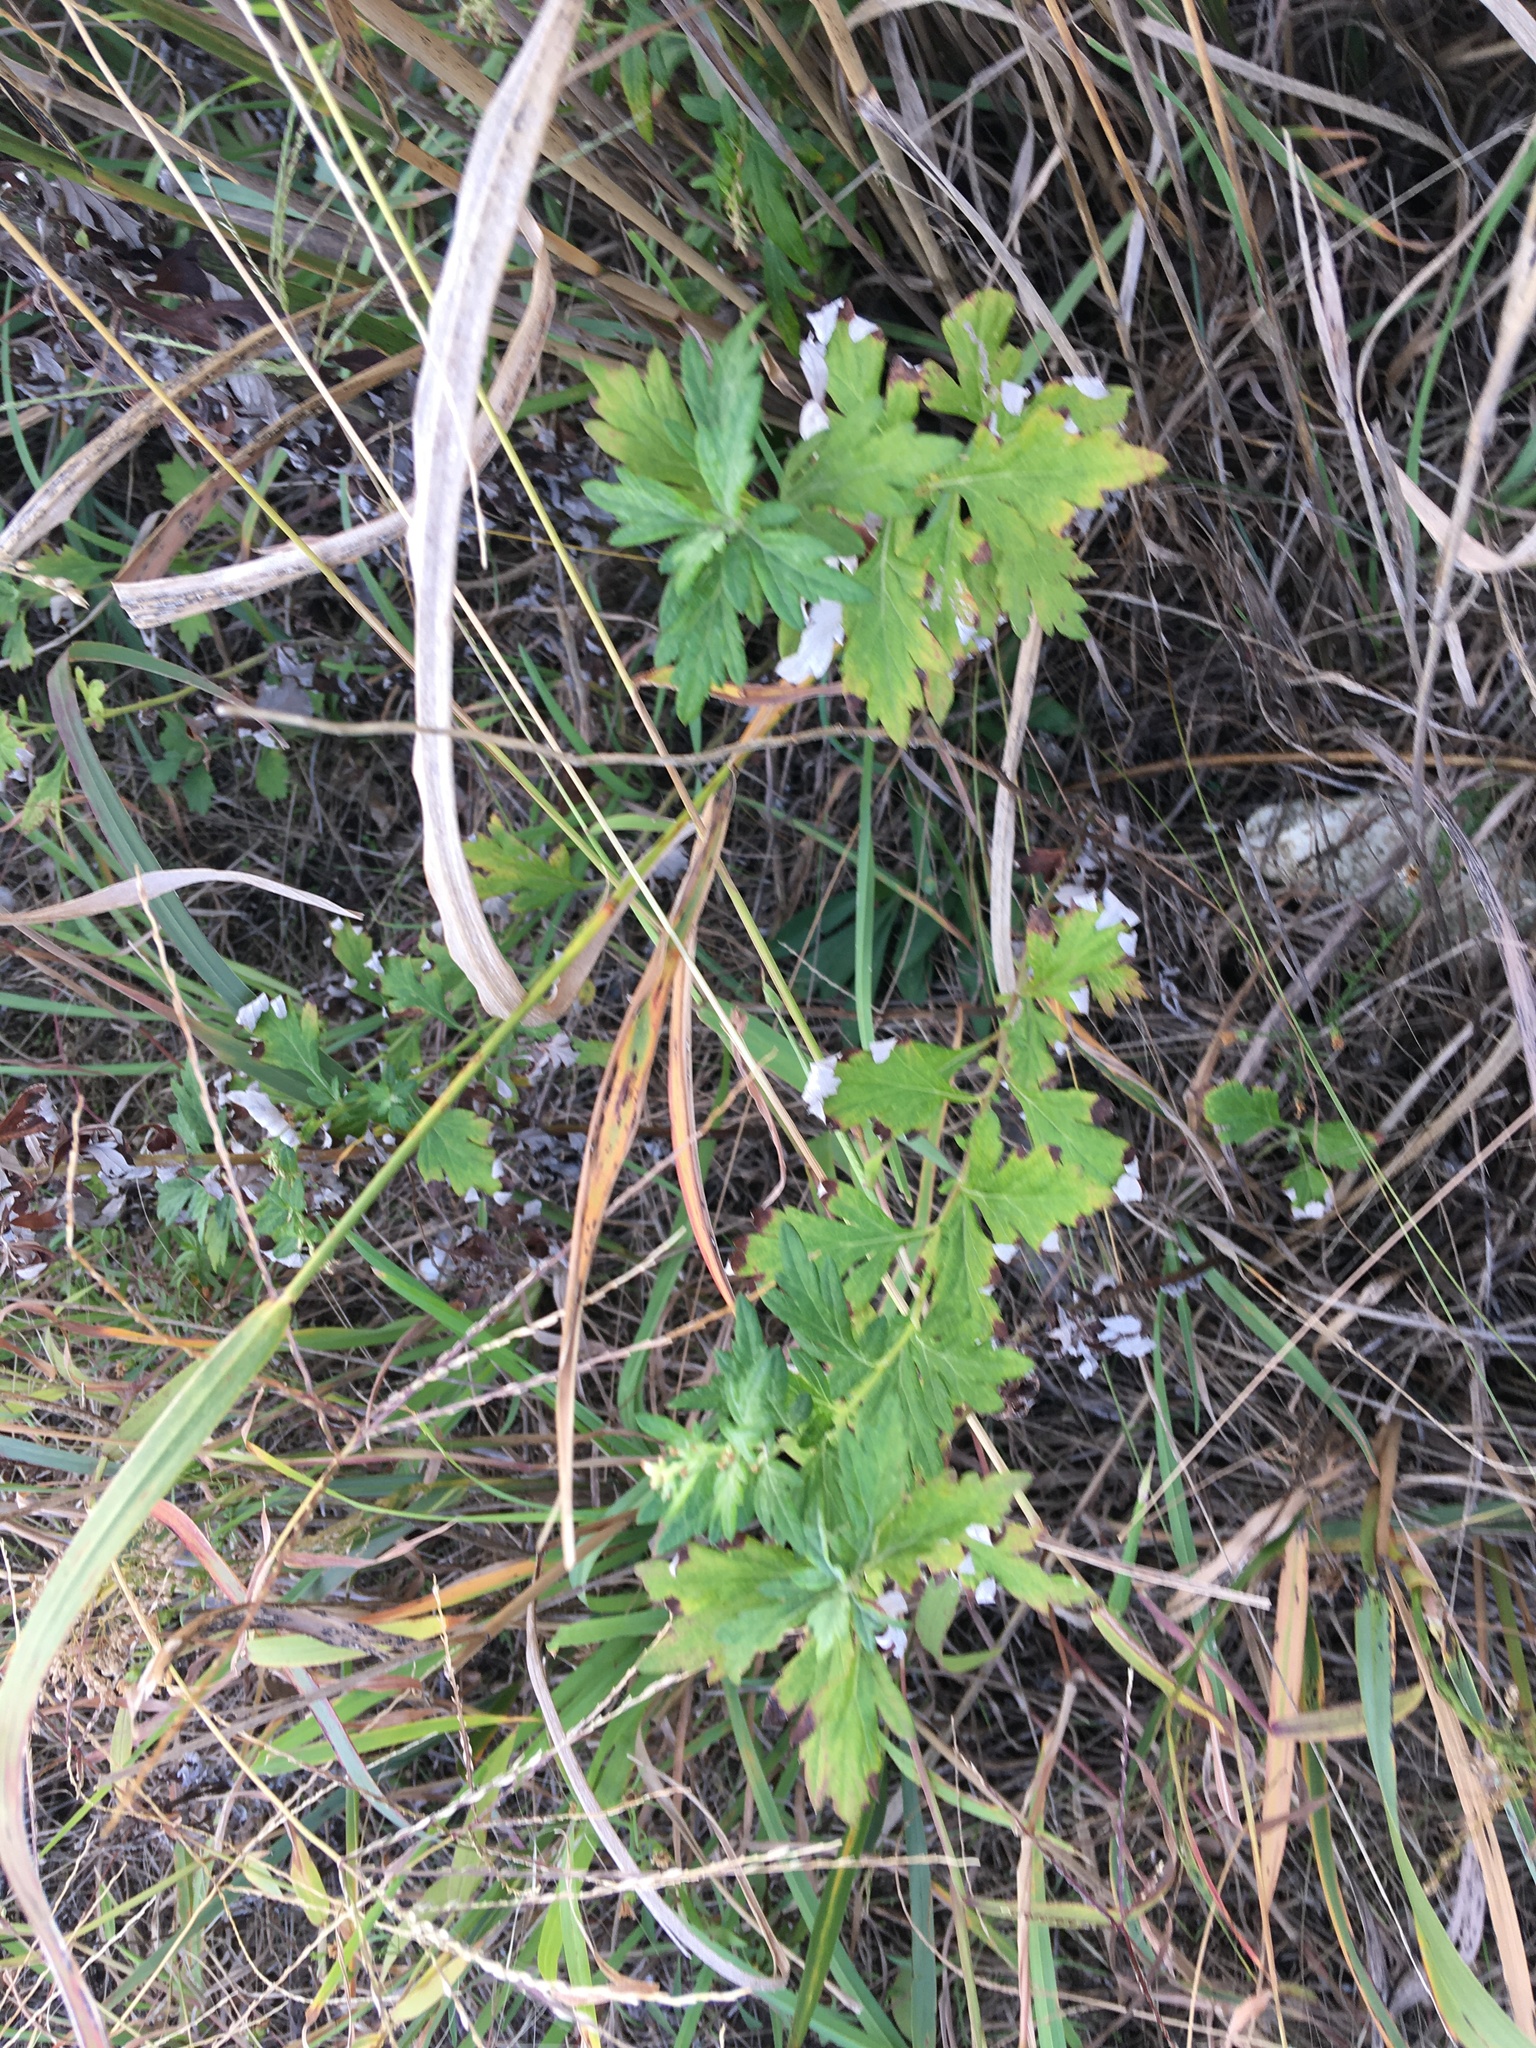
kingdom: Plantae
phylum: Tracheophyta
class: Magnoliopsida
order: Asterales
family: Asteraceae
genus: Artemisia
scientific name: Artemisia vulgaris
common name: Mugwort
